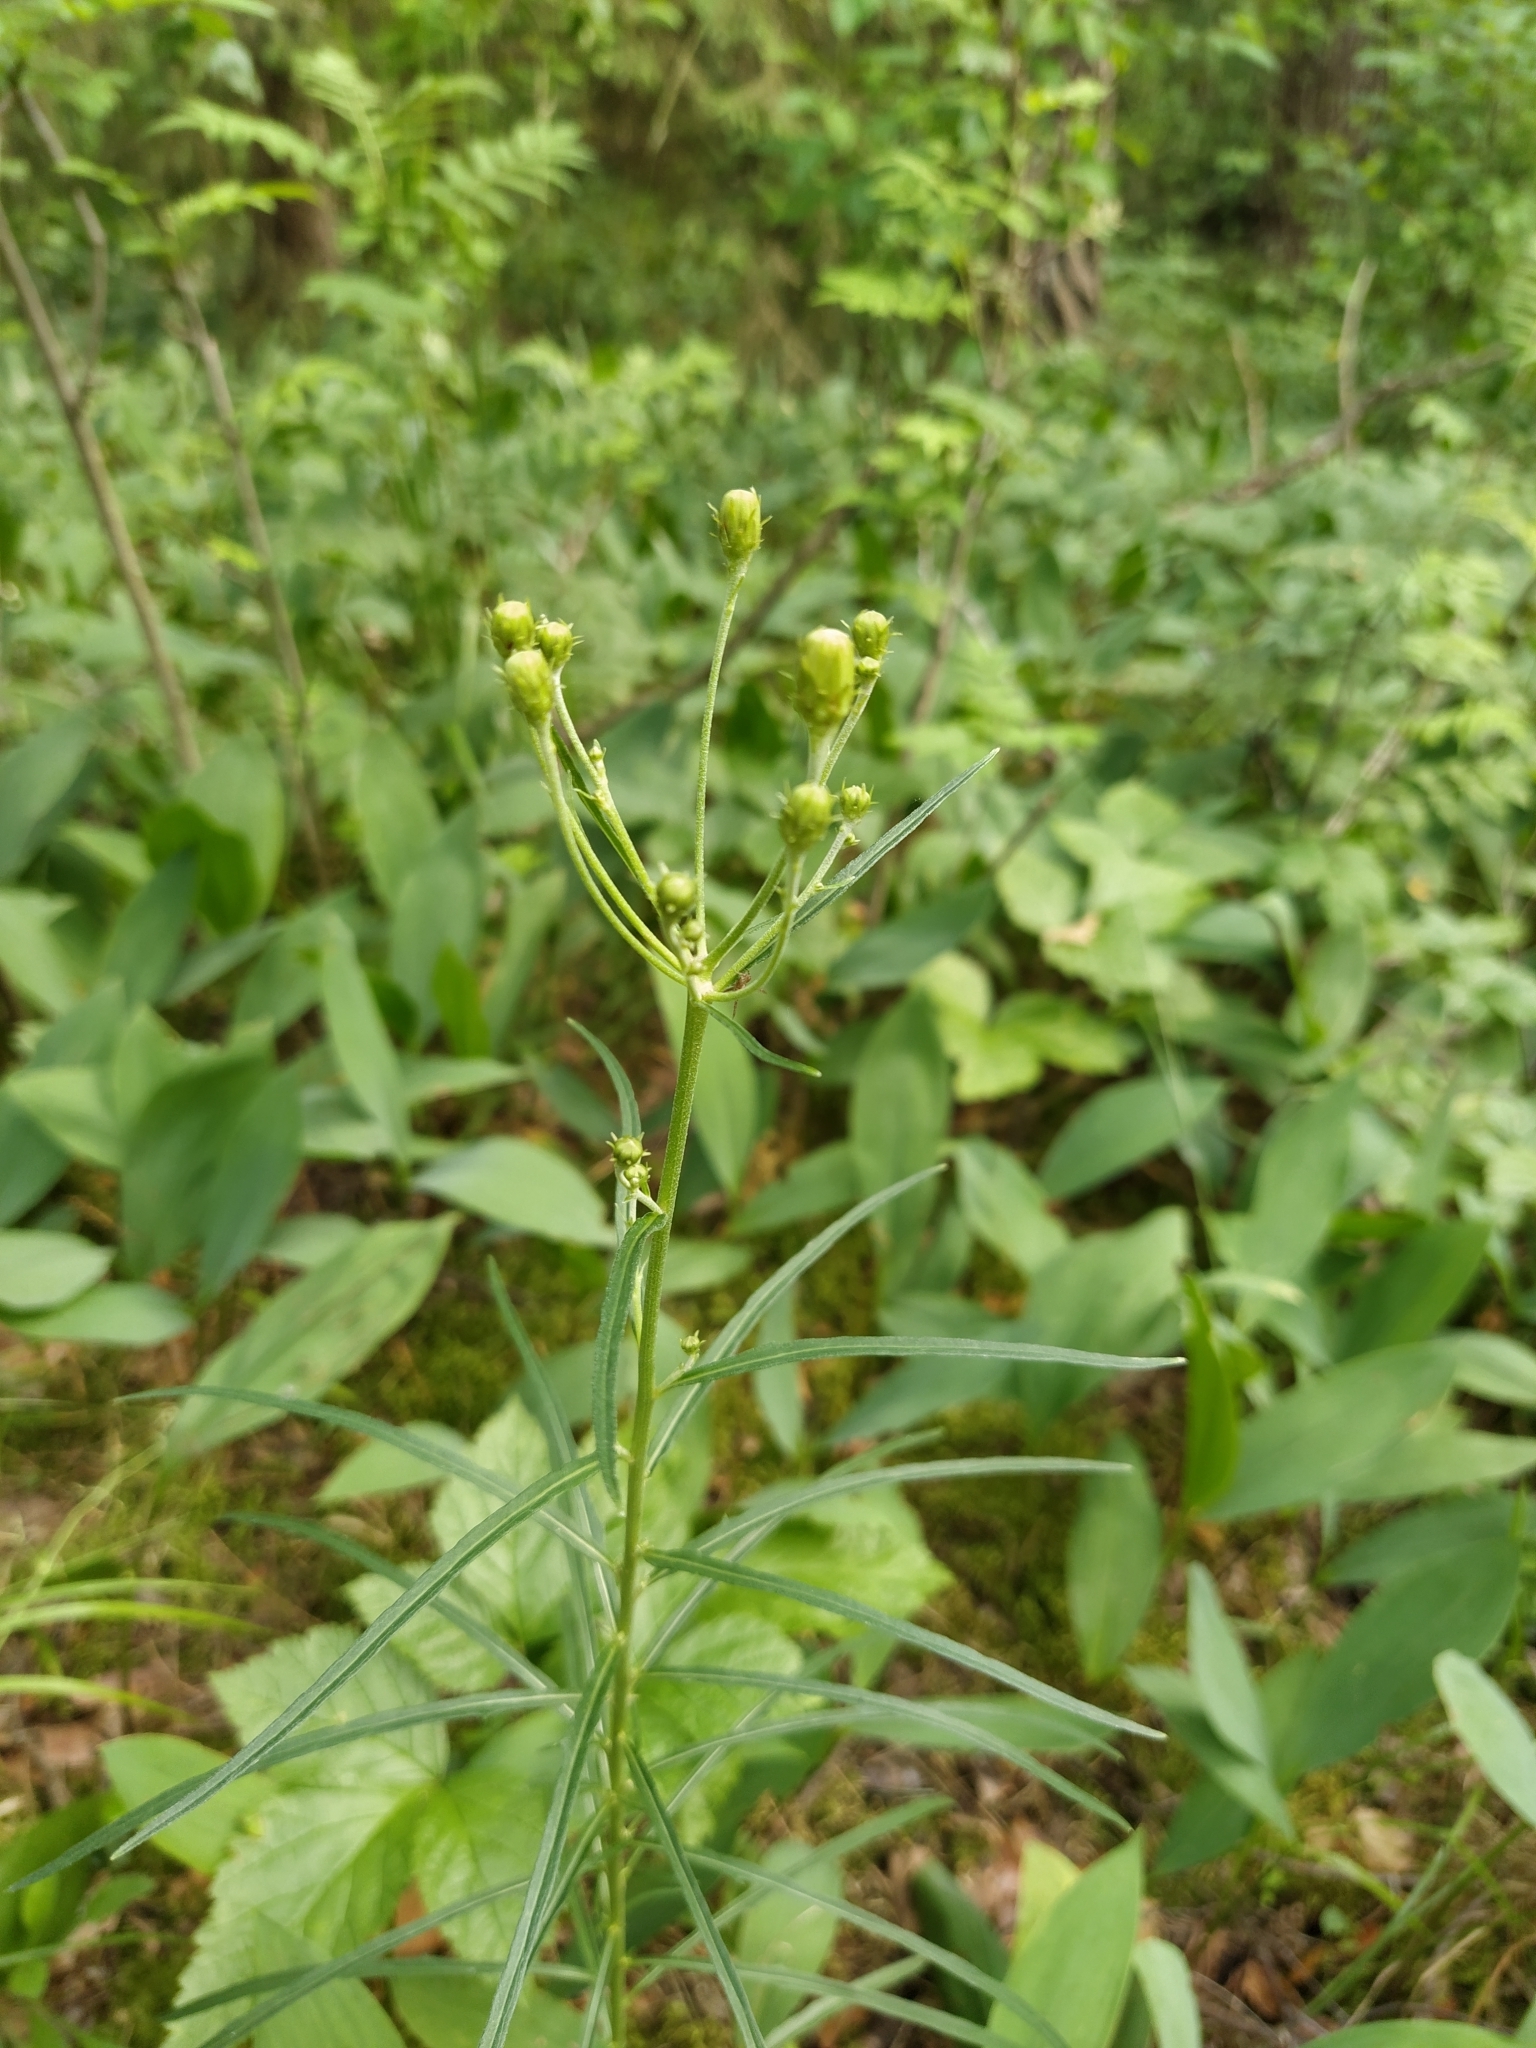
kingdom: Plantae
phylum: Tracheophyta
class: Magnoliopsida
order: Asterales
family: Asteraceae
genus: Hieracium
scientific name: Hieracium umbellatum
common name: Northern hawkweed
